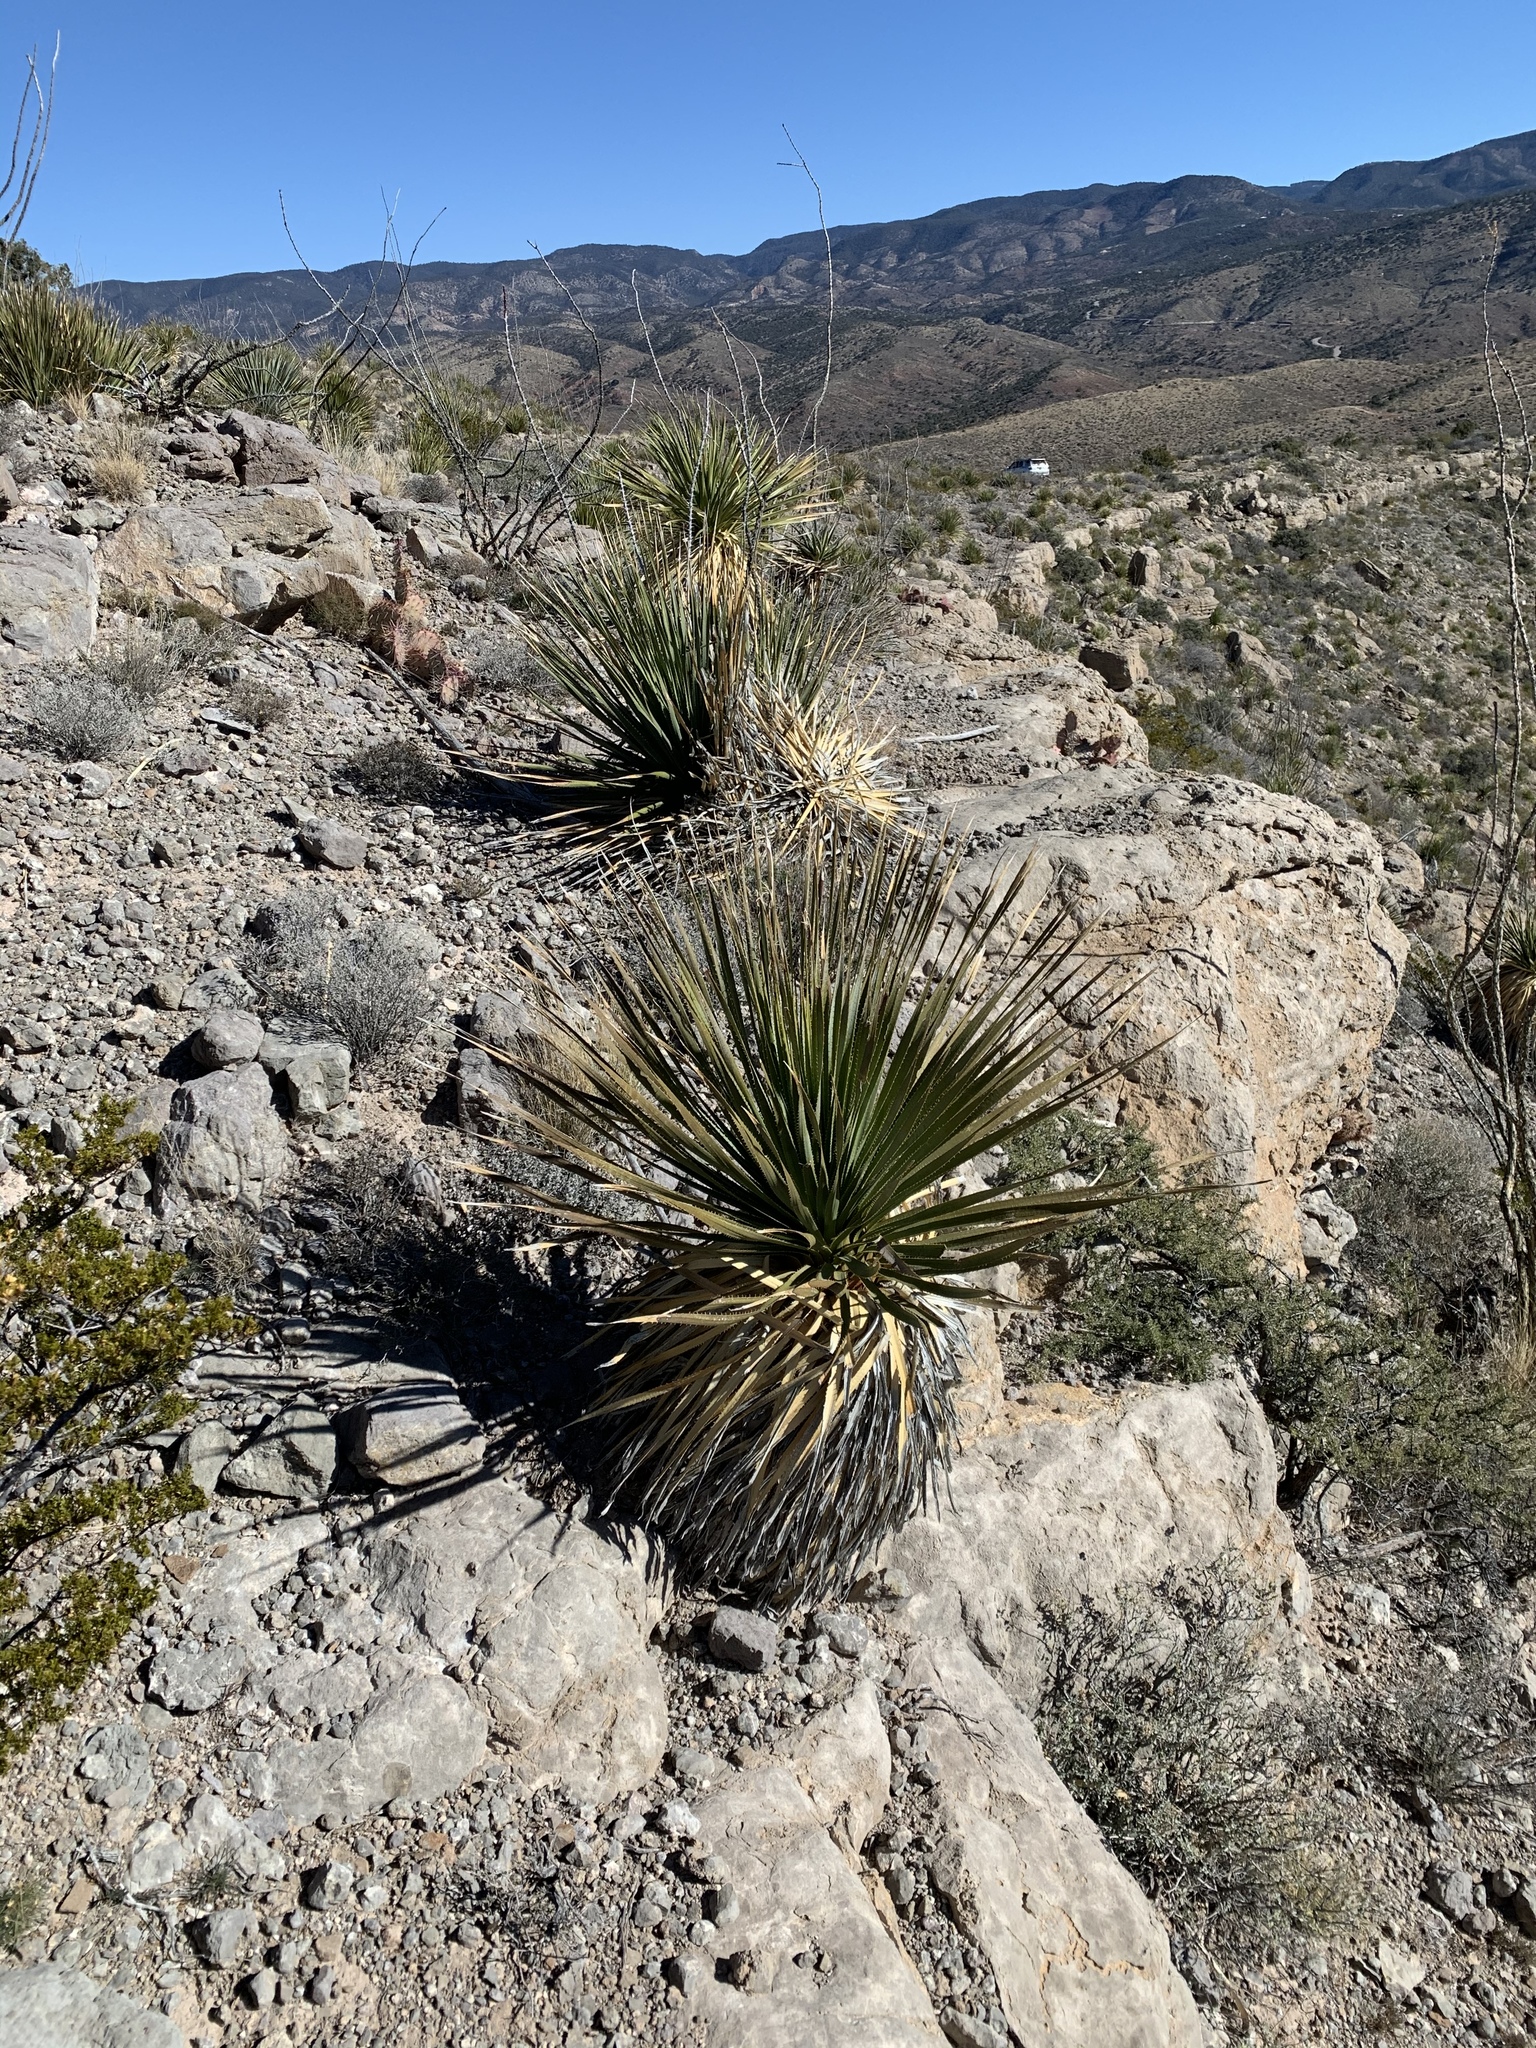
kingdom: Plantae
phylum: Tracheophyta
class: Liliopsida
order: Asparagales
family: Asparagaceae
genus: Dasylirion
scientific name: Dasylirion wheeleri
